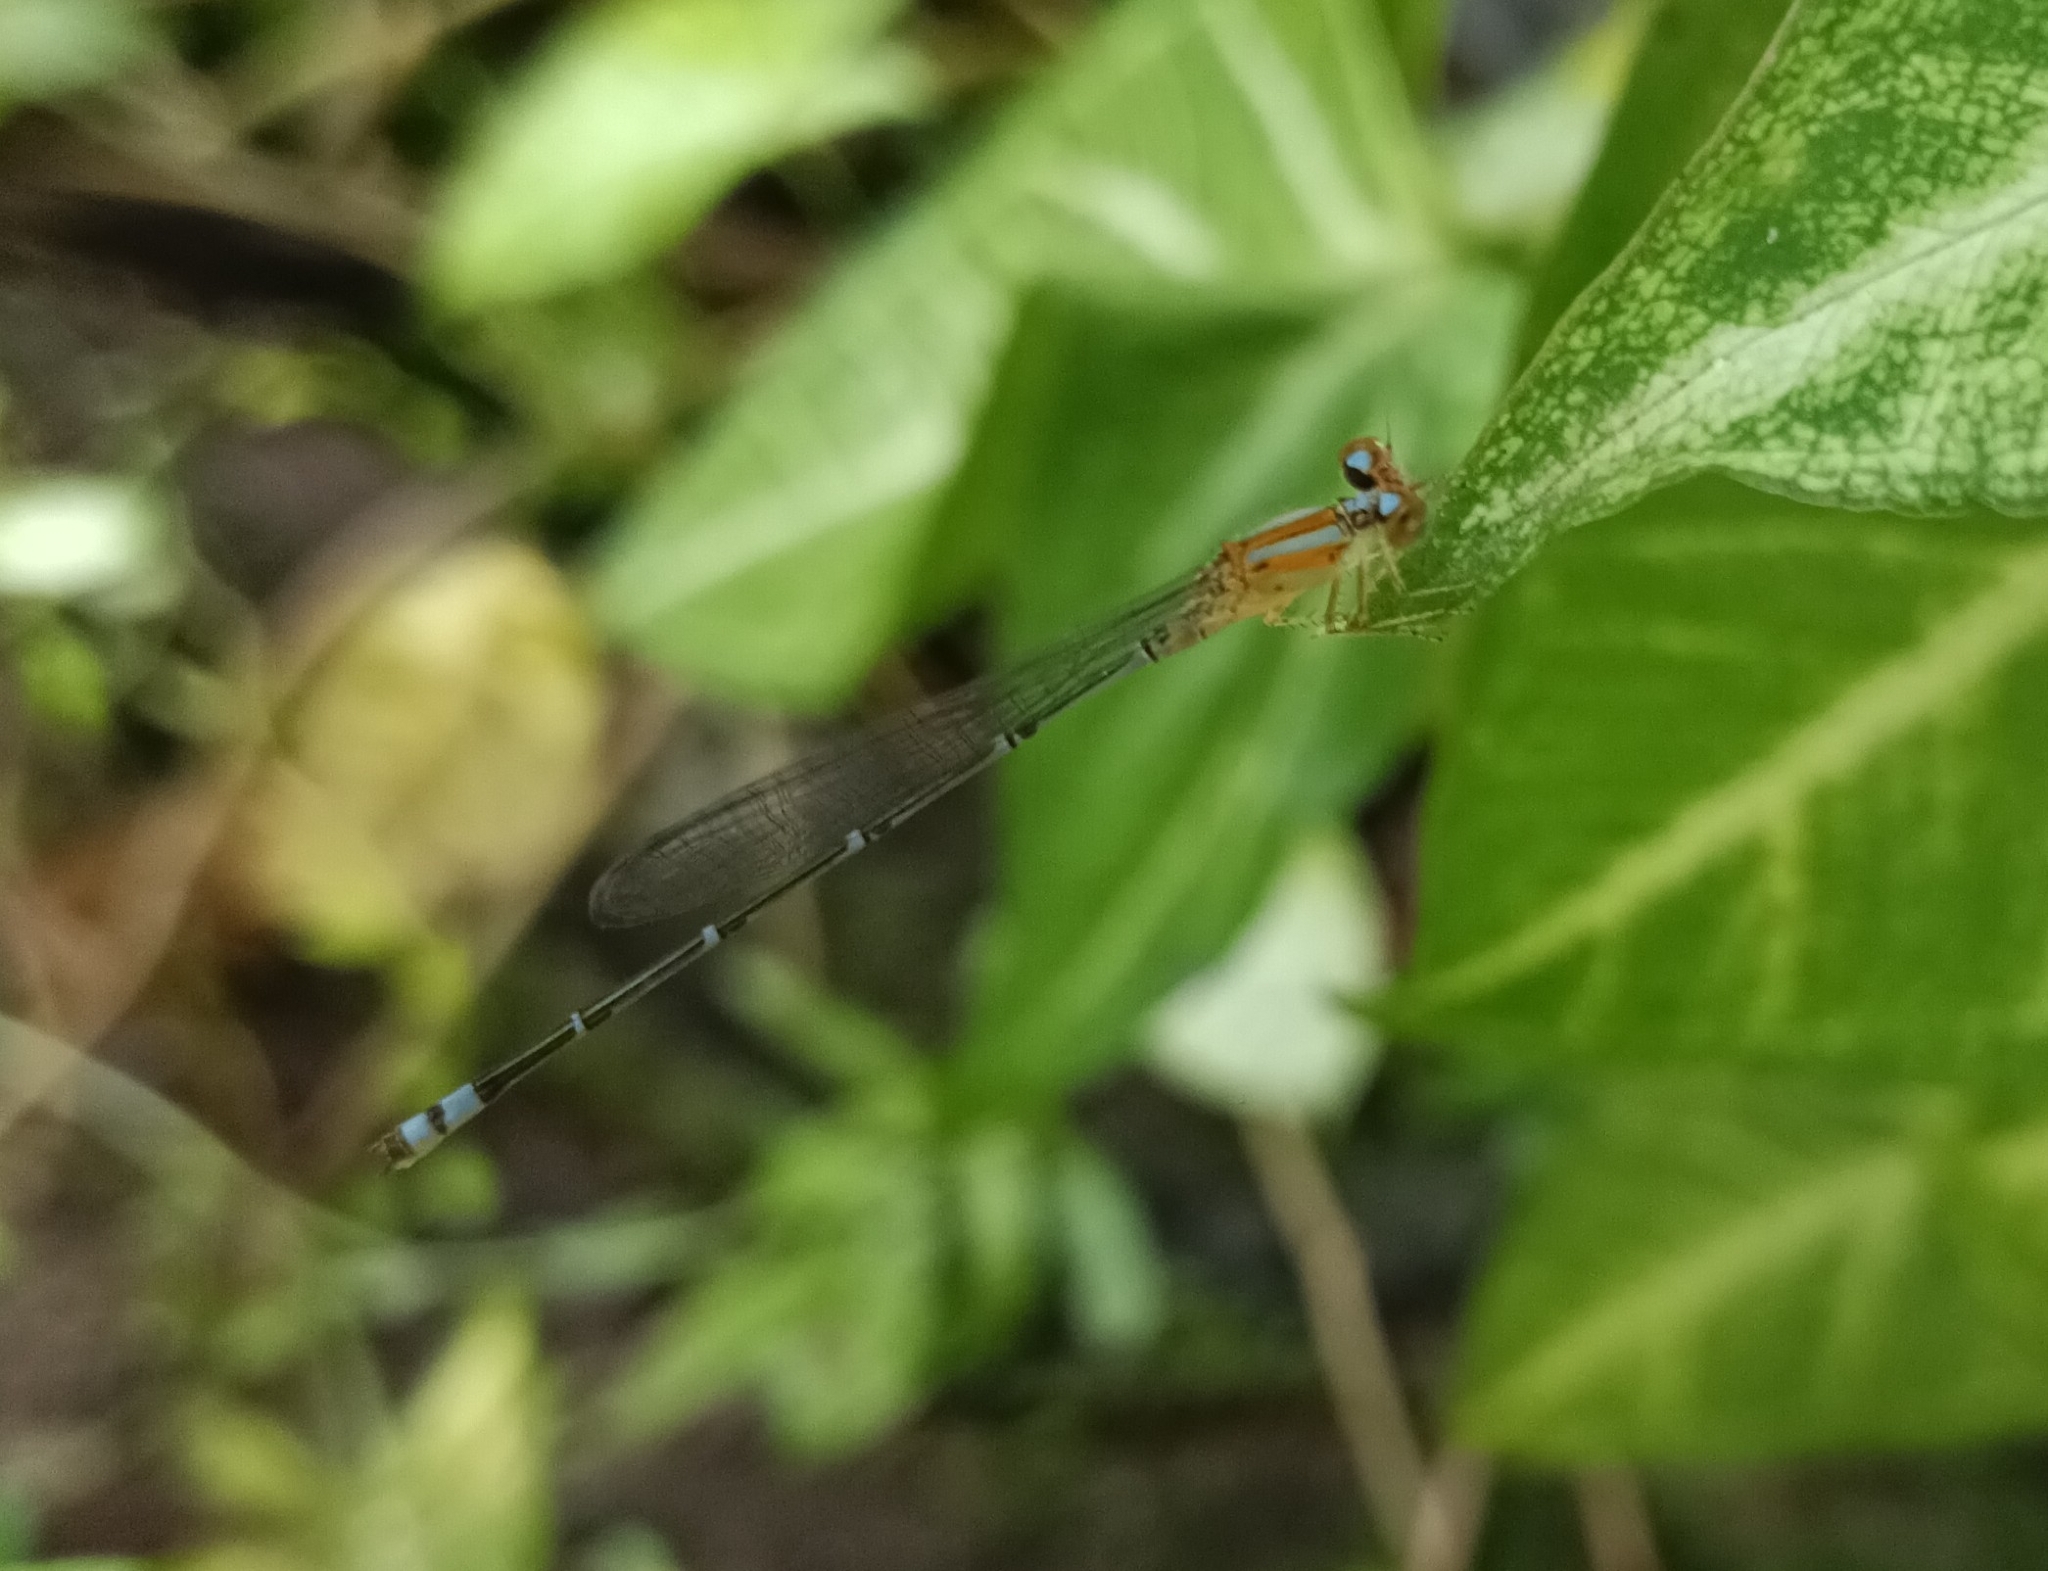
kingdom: Animalia
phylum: Arthropoda
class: Insecta
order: Odonata
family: Coenagrionidae
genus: Pseudagrion
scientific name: Pseudagrion microcephalum
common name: Blue riverdamsel
